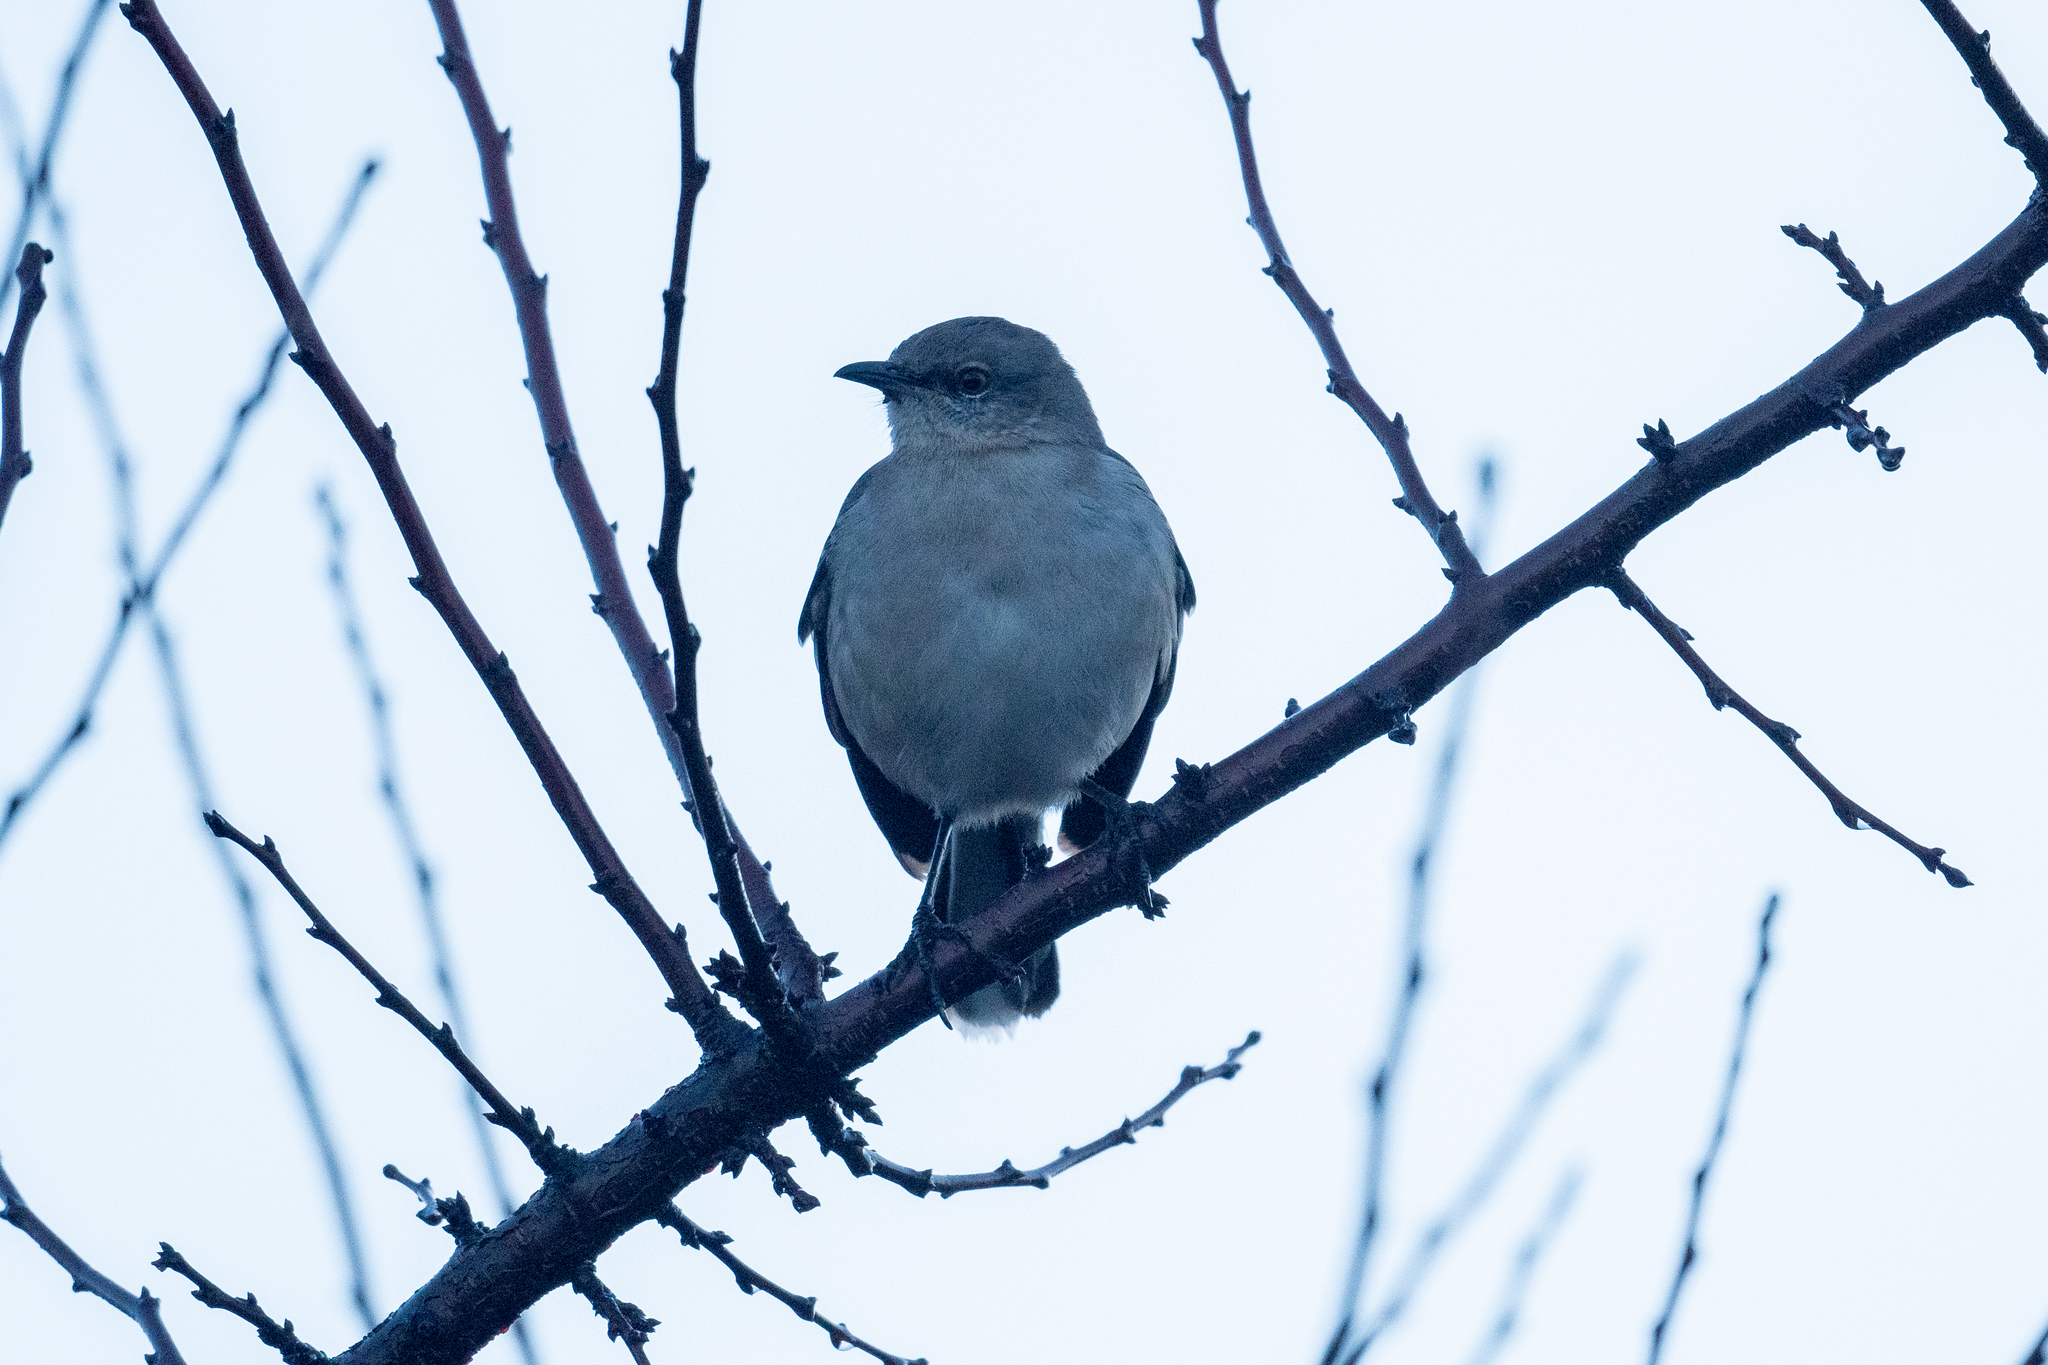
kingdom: Animalia
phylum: Chordata
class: Aves
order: Passeriformes
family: Mimidae
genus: Mimus
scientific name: Mimus polyglottos
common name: Northern mockingbird
